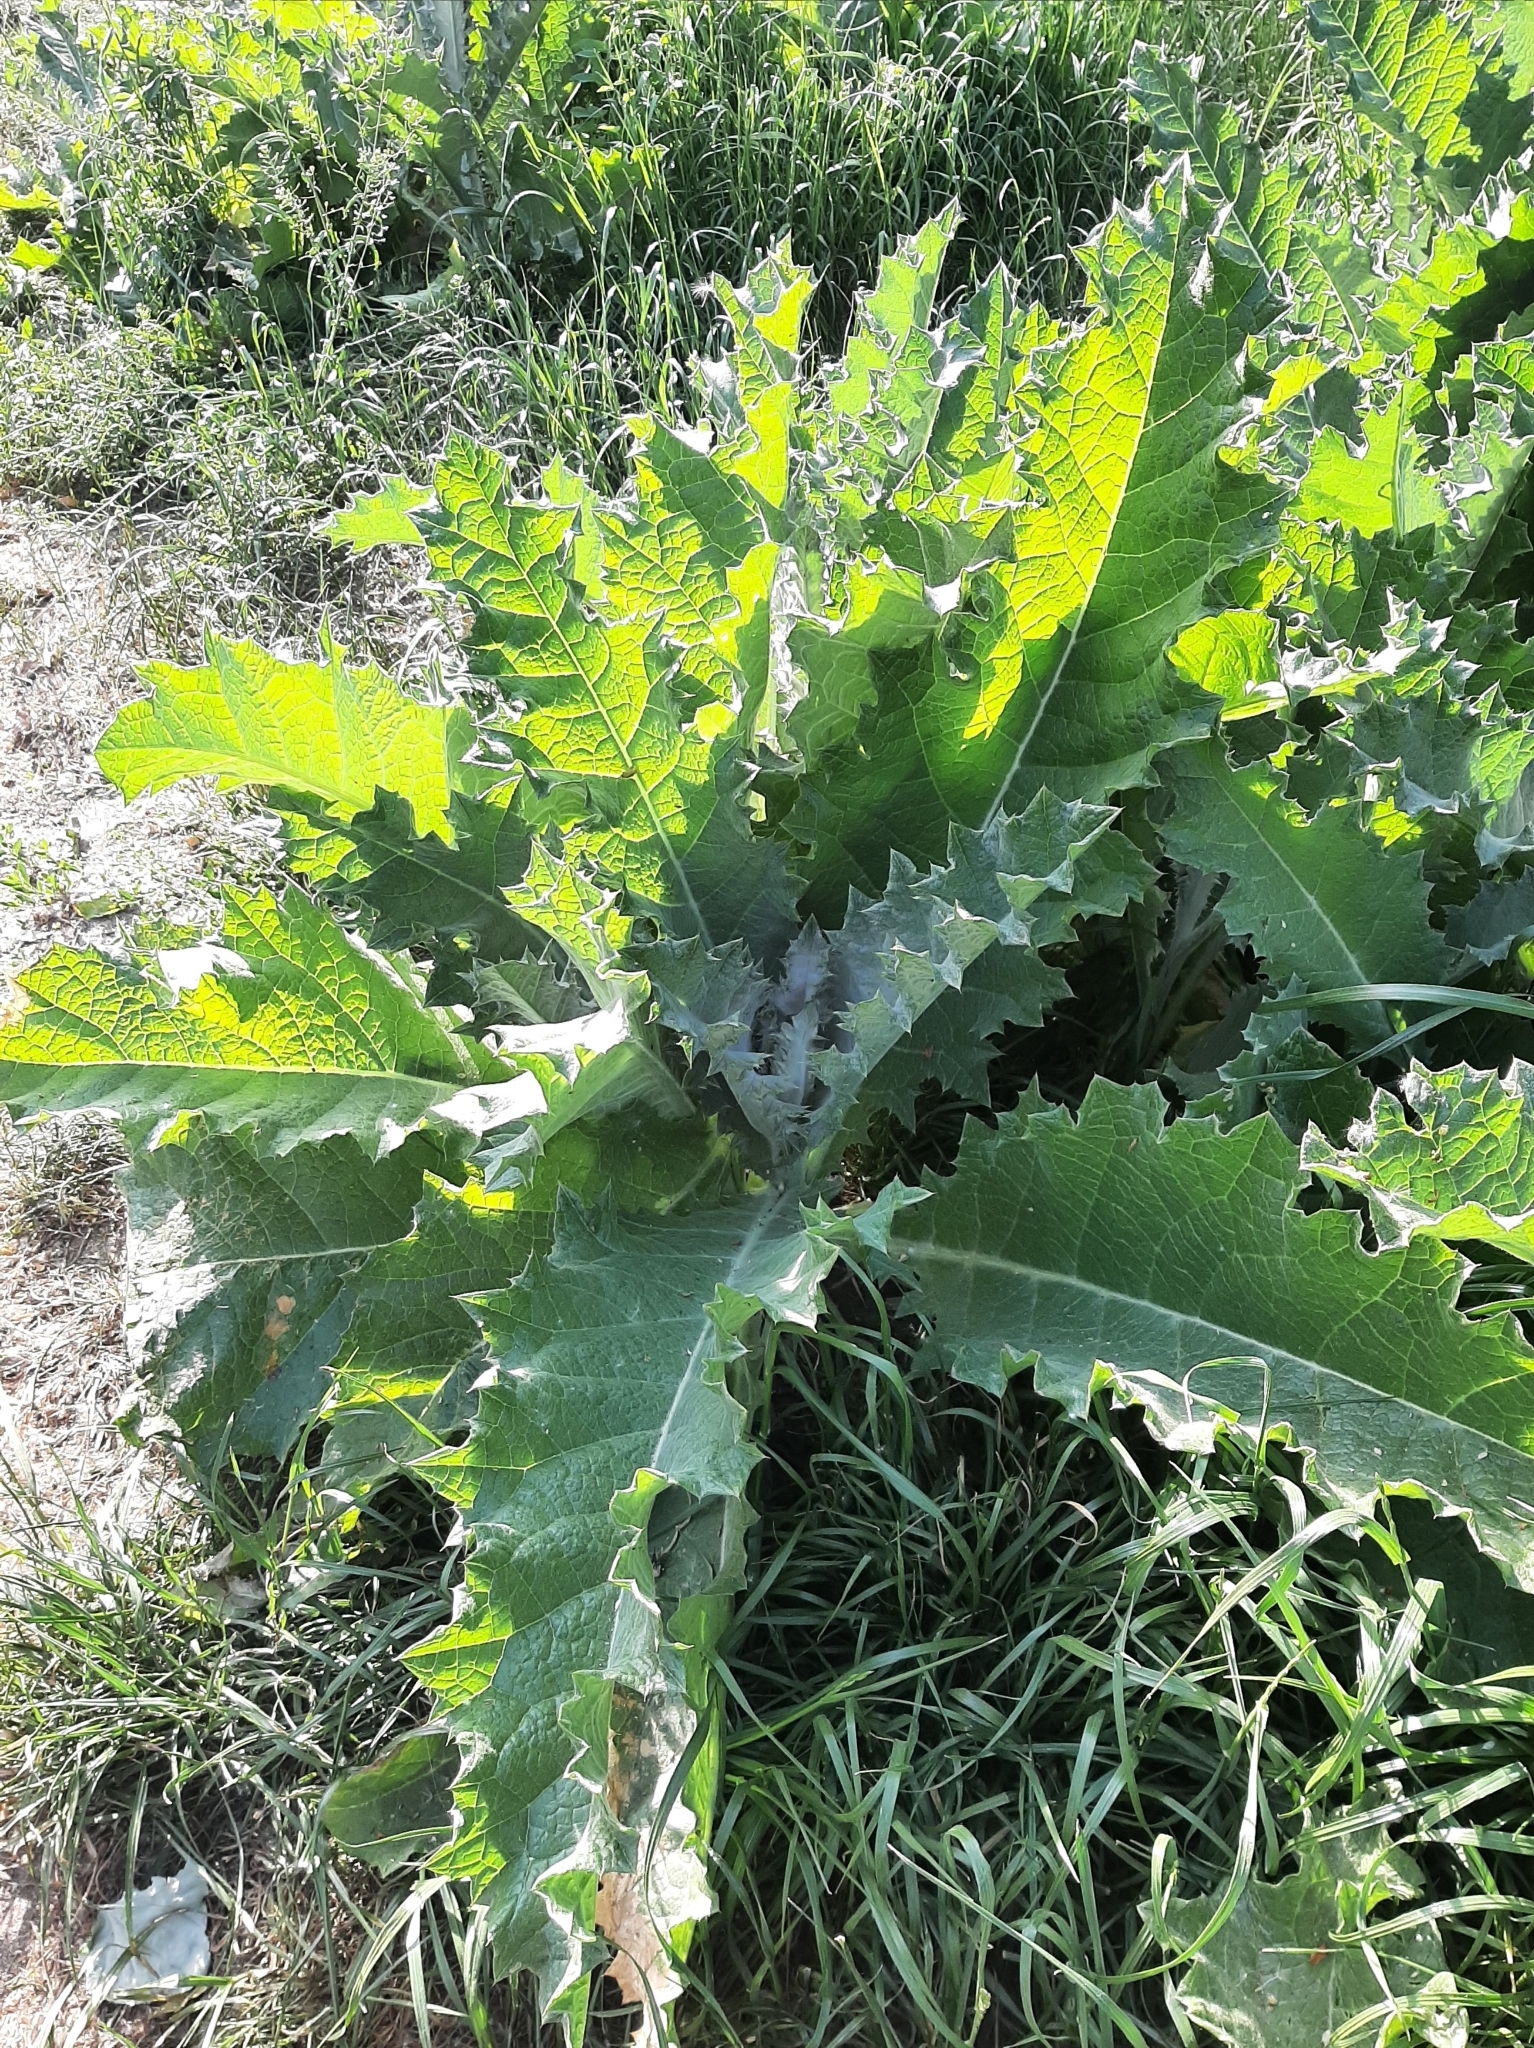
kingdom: Plantae
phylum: Tracheophyta
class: Magnoliopsida
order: Asterales
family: Asteraceae
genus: Onopordum
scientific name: Onopordum acanthium
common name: Scotch thistle
